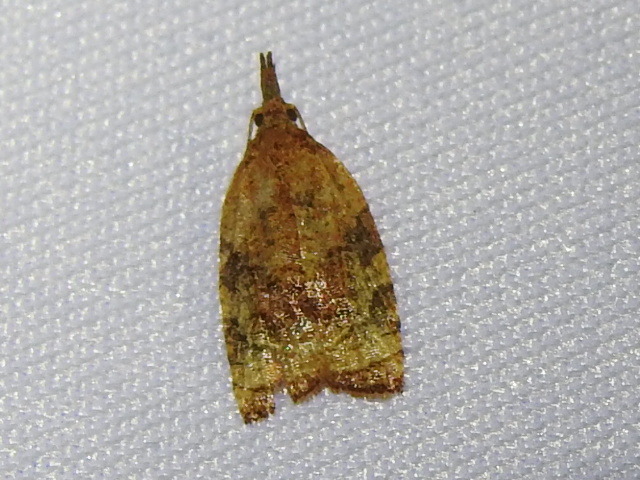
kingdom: Animalia
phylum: Arthropoda
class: Insecta
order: Lepidoptera
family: Tortricidae
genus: Platynota
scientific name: Platynota flavedana
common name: Black-shaded platynota moth
